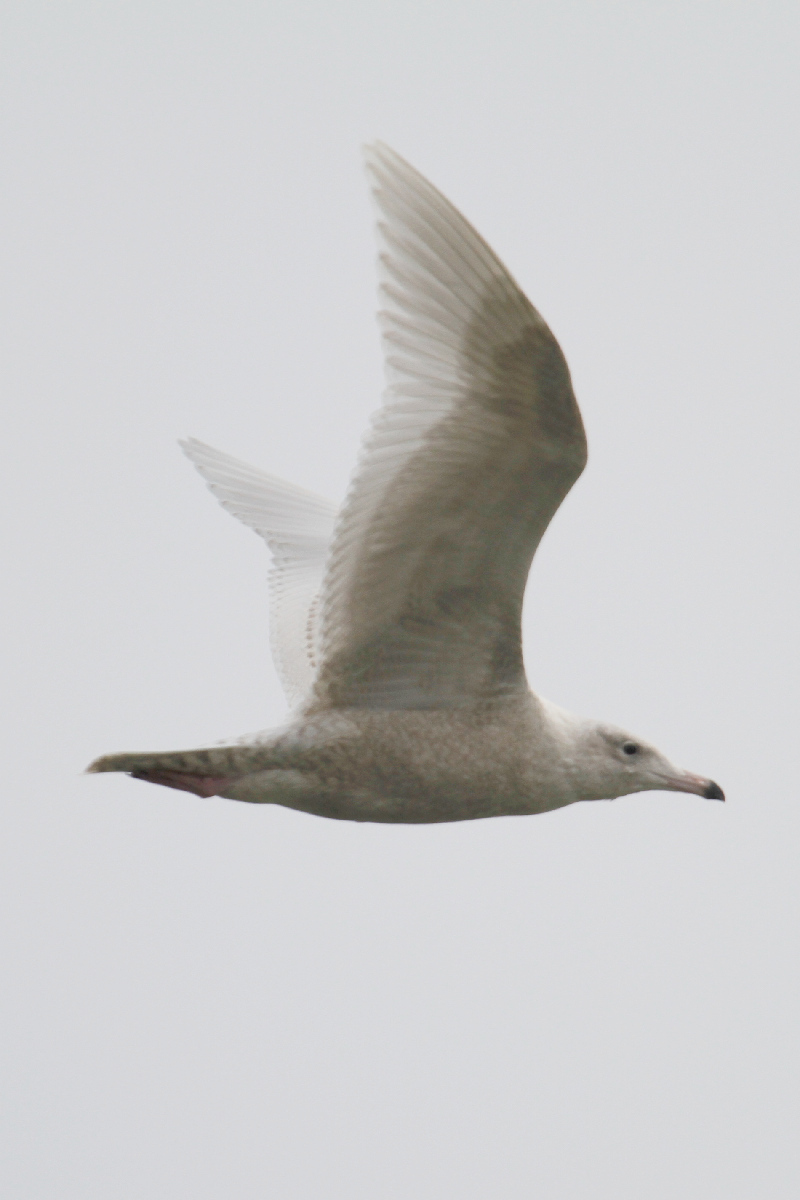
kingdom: Animalia
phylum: Chordata
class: Aves
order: Charadriiformes
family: Laridae
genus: Larus
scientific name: Larus hyperboreus
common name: Glaucous gull
